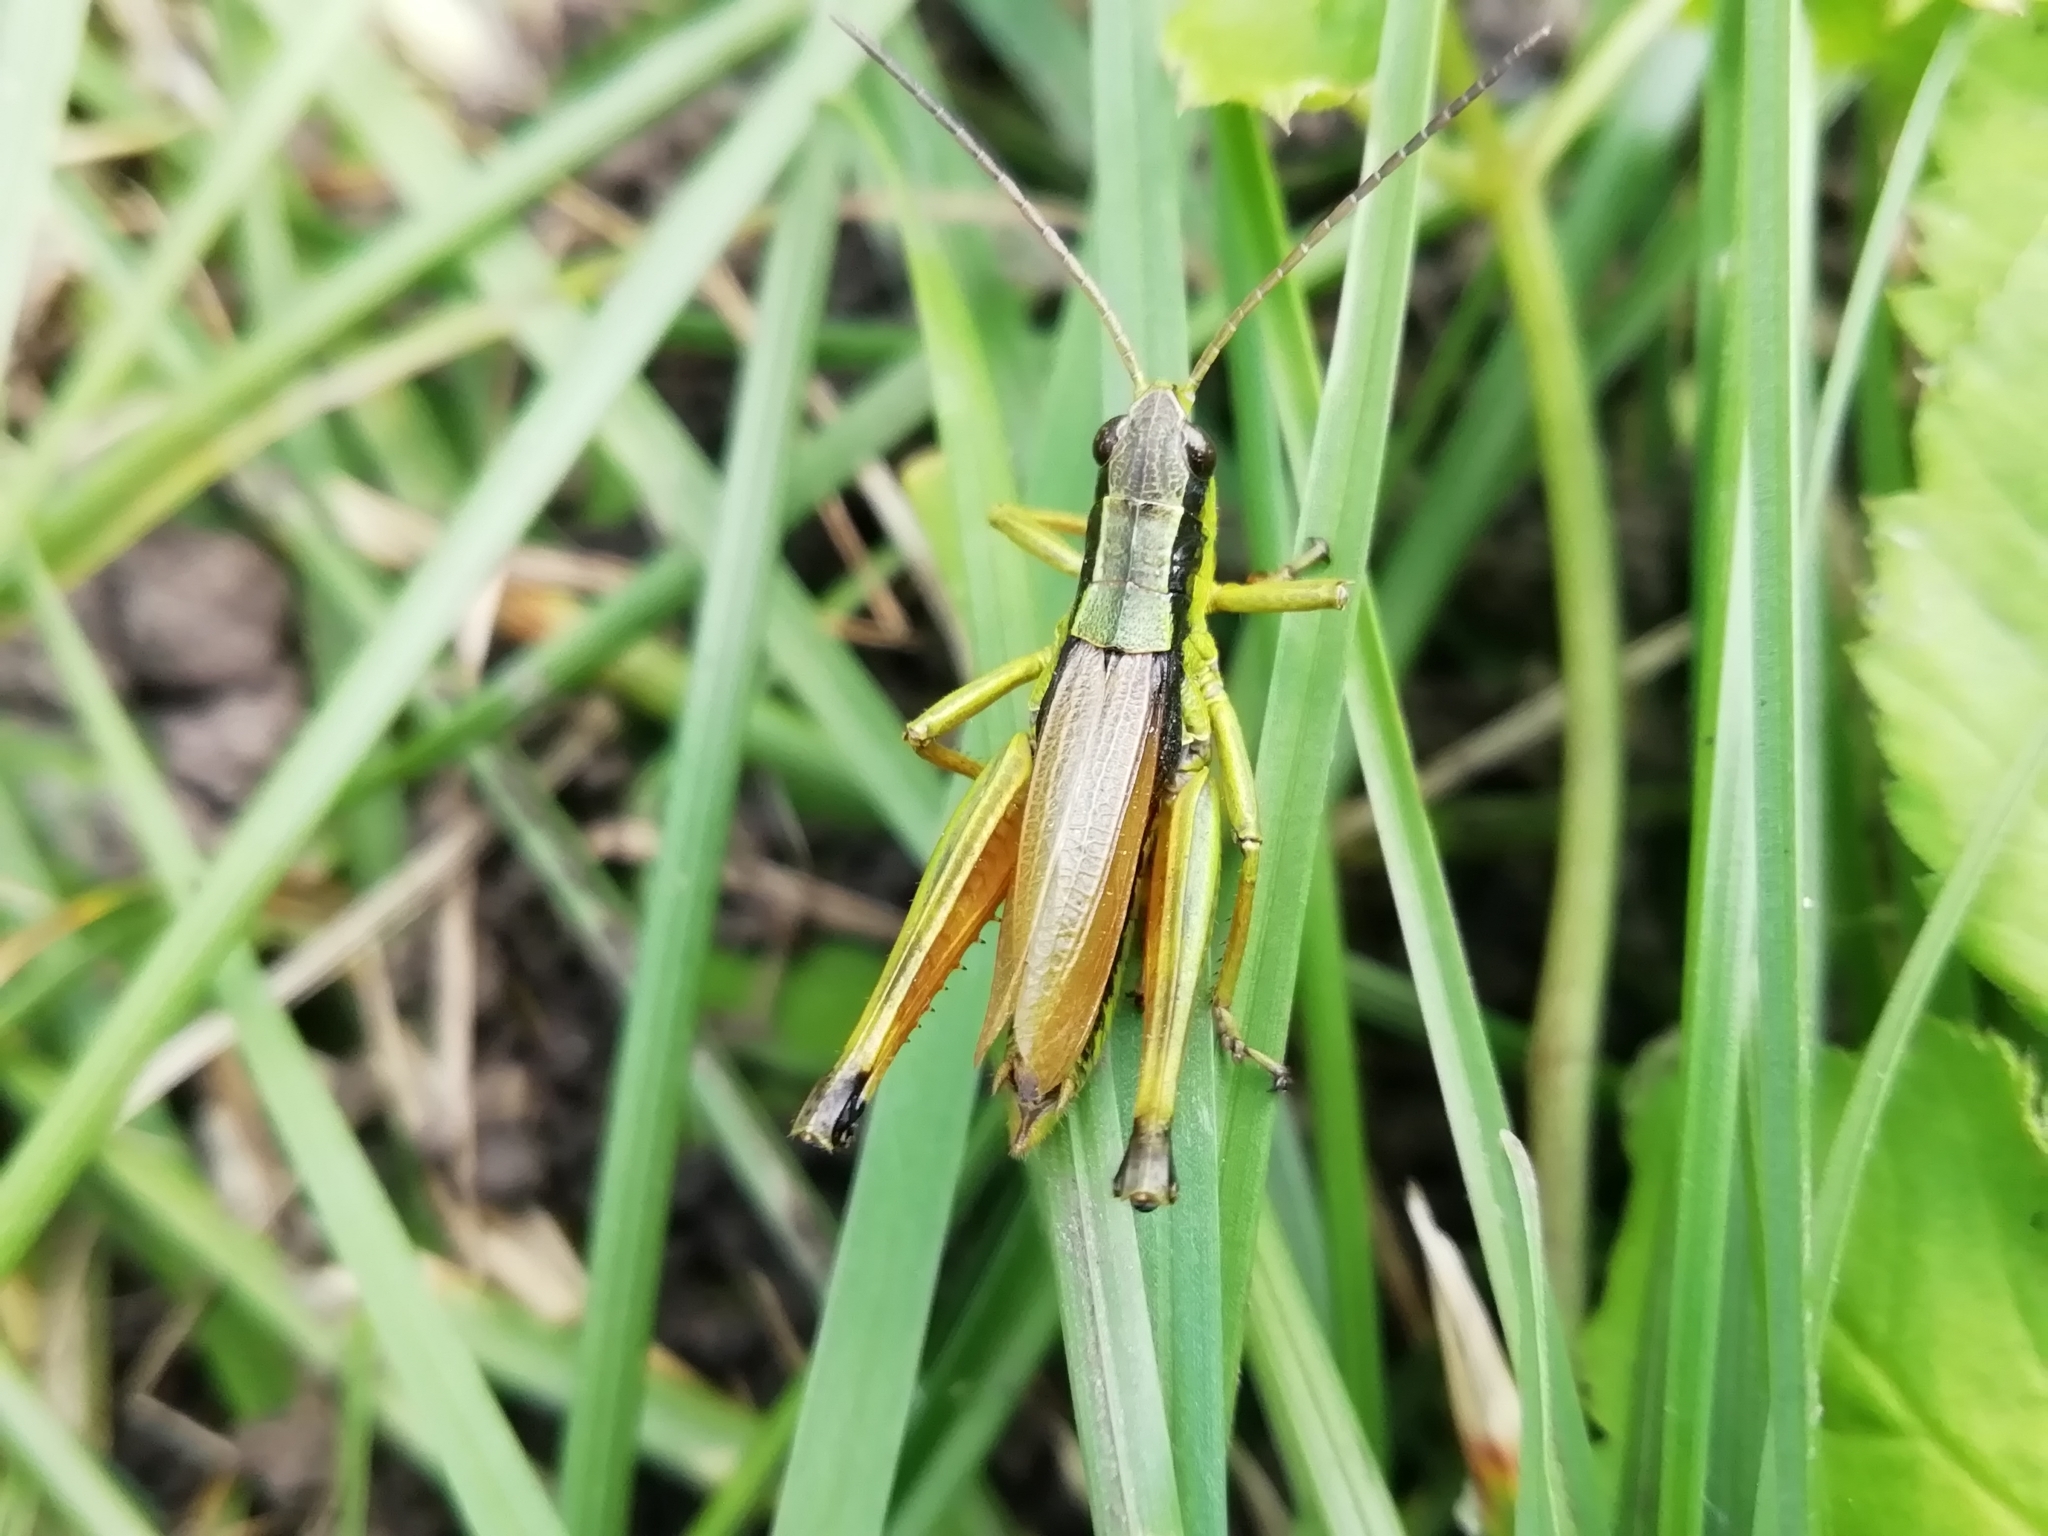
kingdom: Animalia
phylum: Arthropoda
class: Insecta
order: Orthoptera
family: Acrididae
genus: Podismopsis
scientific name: Podismopsis poppiusi
